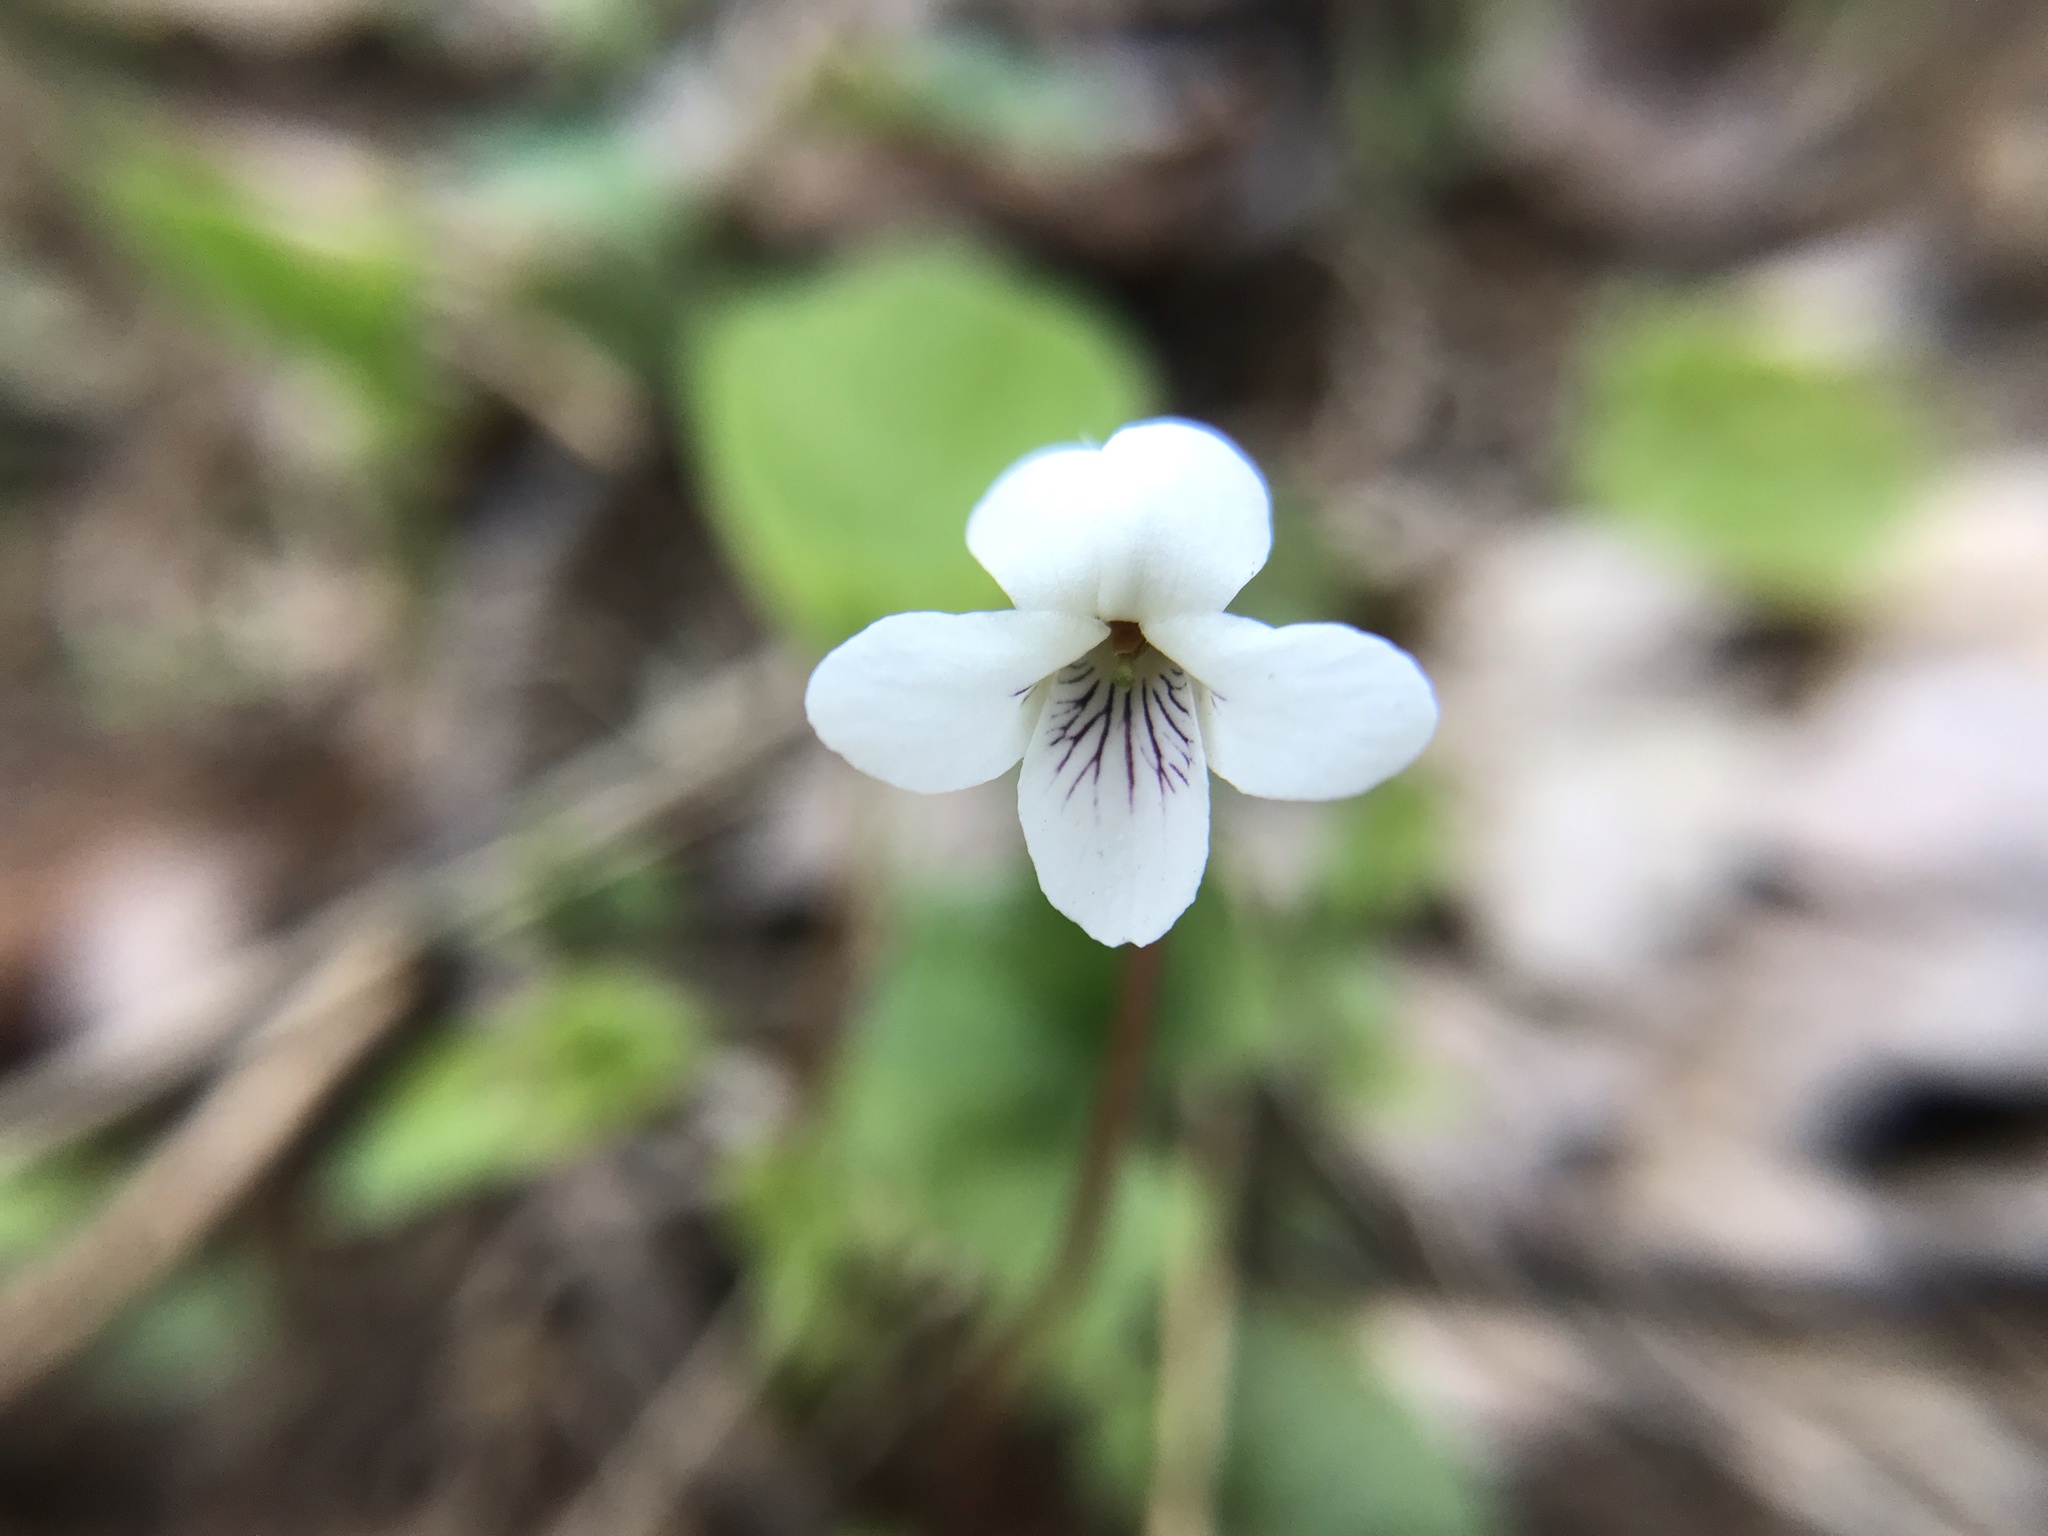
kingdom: Plantae
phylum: Tracheophyta
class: Magnoliopsida
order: Malpighiales
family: Violaceae
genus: Viola
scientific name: Viola blanda
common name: Sweet white violet
